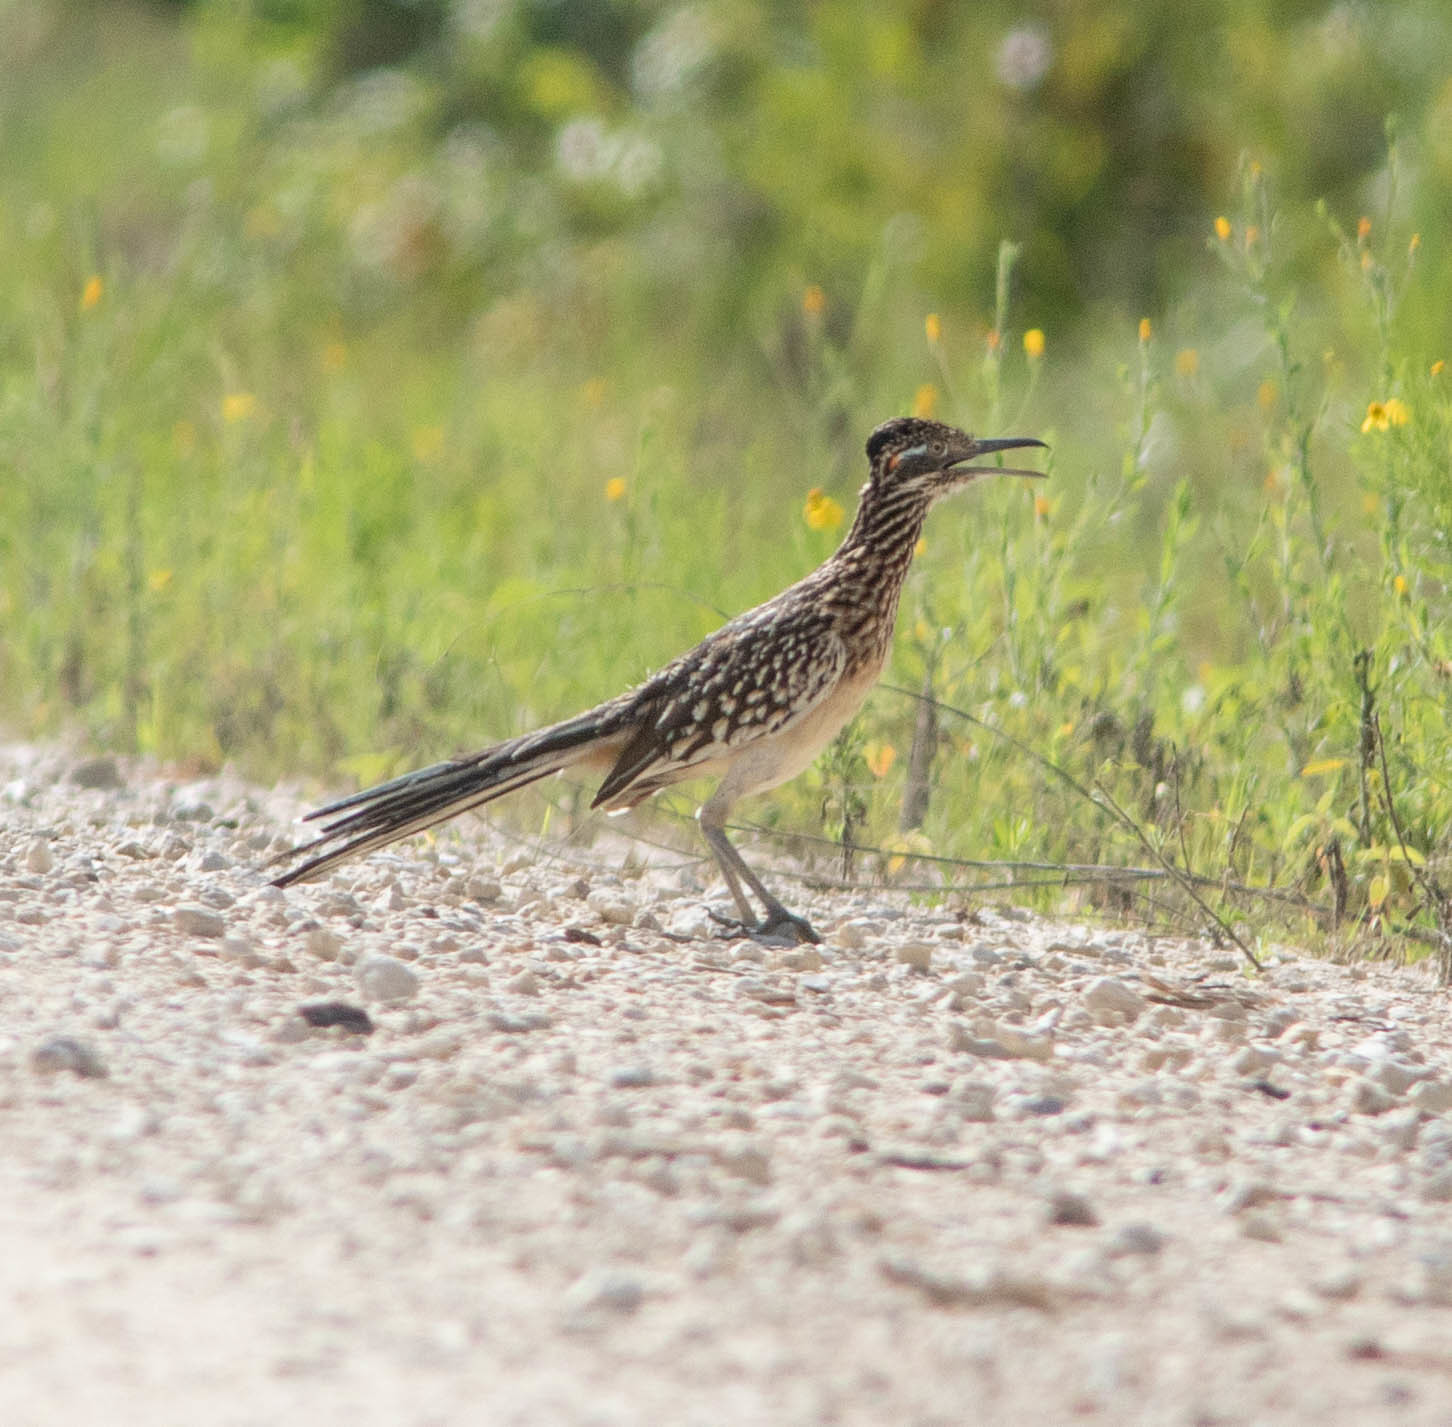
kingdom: Animalia
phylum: Chordata
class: Aves
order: Cuculiformes
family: Cuculidae
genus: Geococcyx
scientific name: Geococcyx californianus
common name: Greater roadrunner
